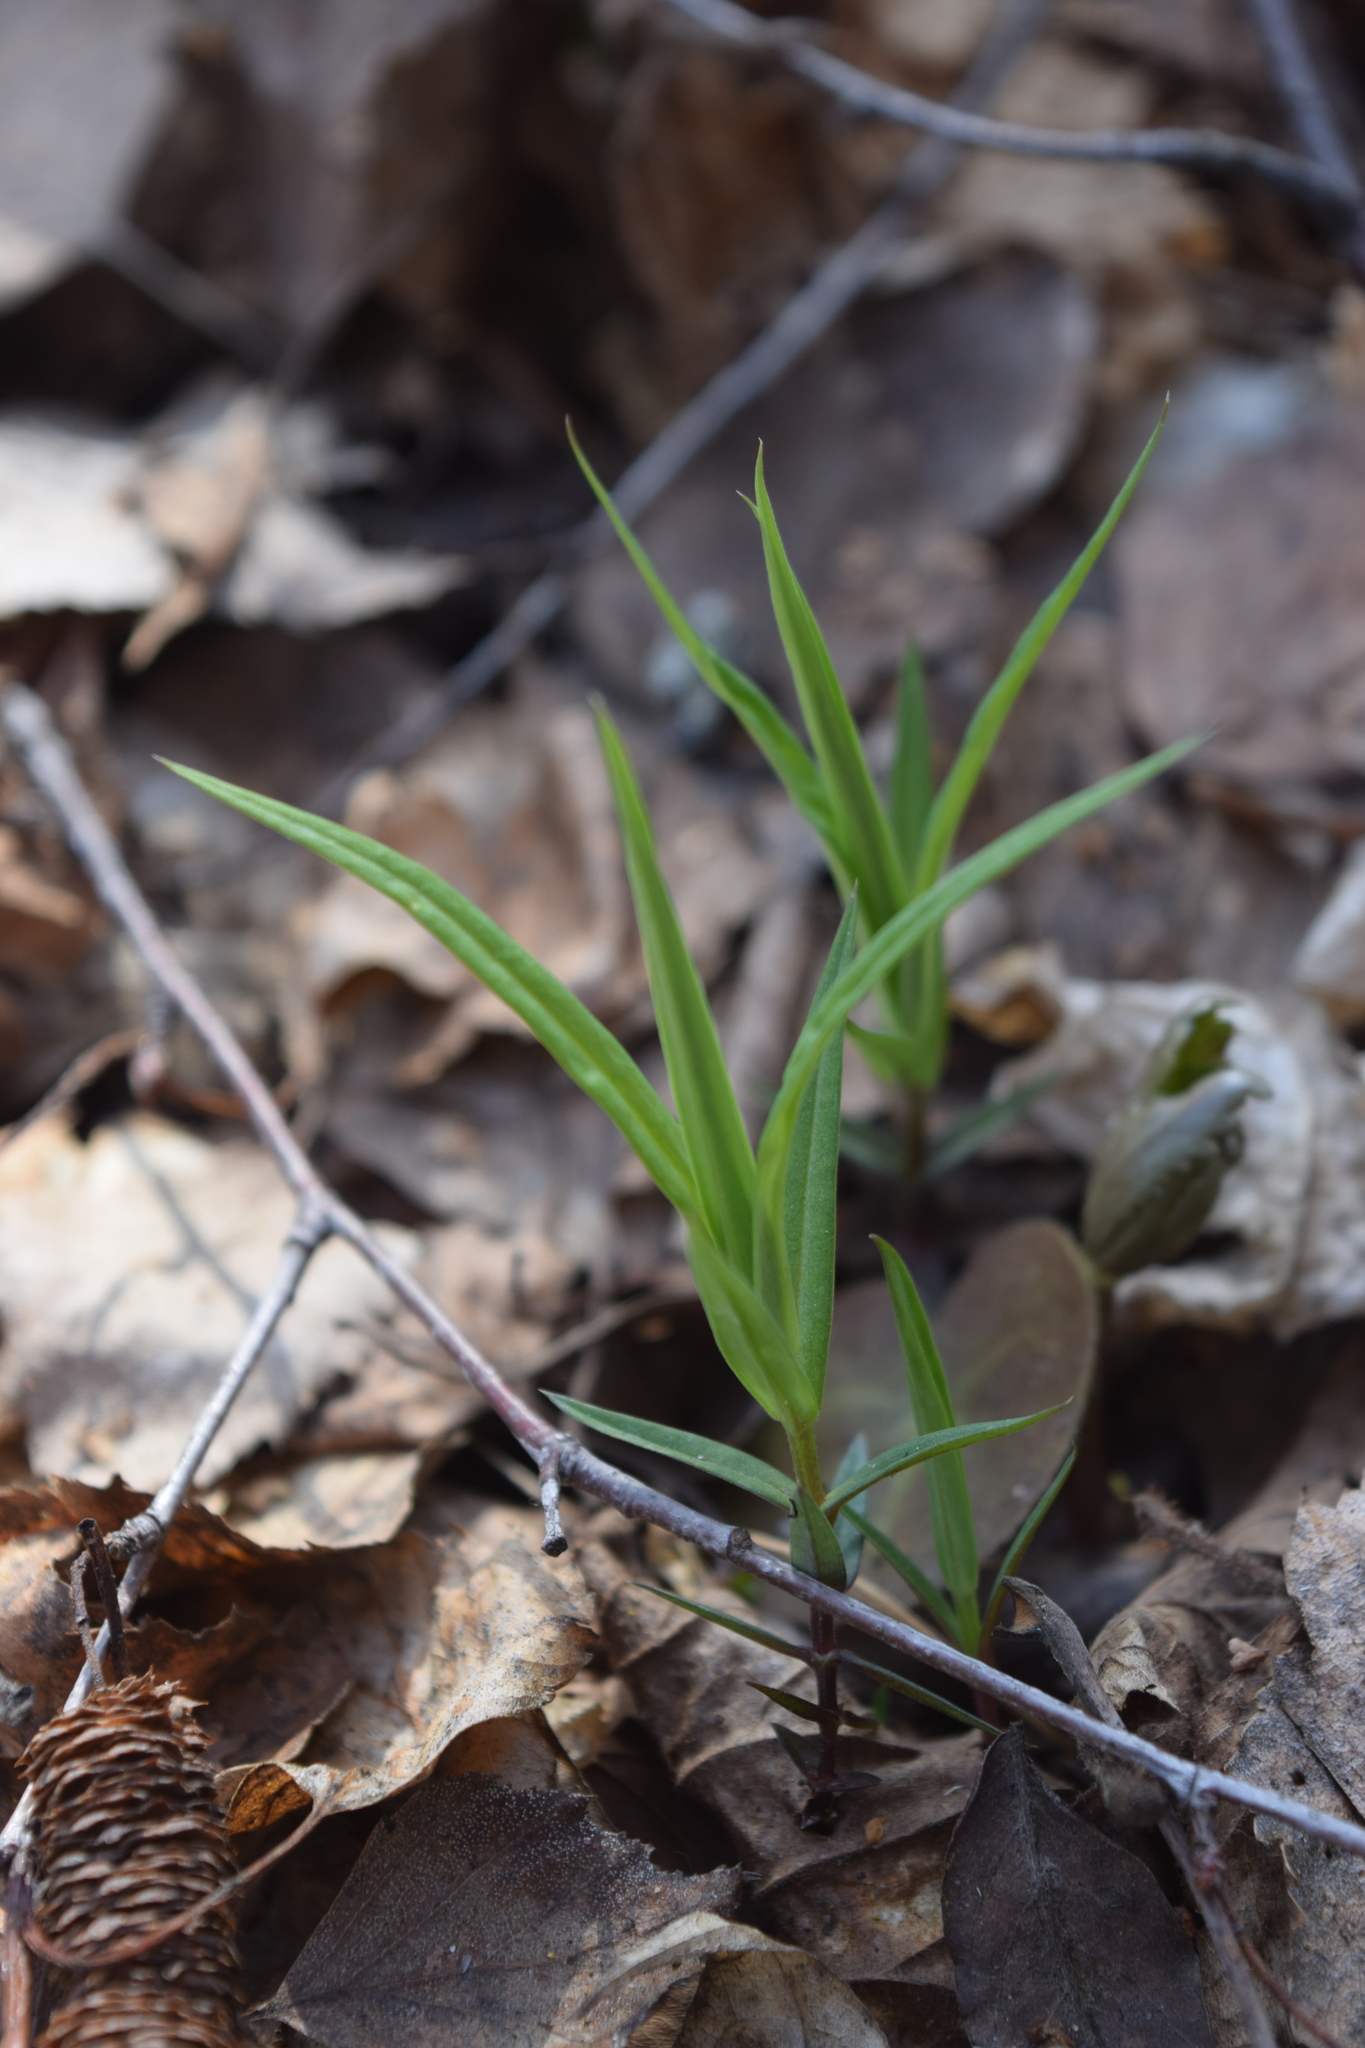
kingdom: Plantae
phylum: Tracheophyta
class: Magnoliopsida
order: Caryophyllales
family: Caryophyllaceae
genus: Rabelera
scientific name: Rabelera holostea
